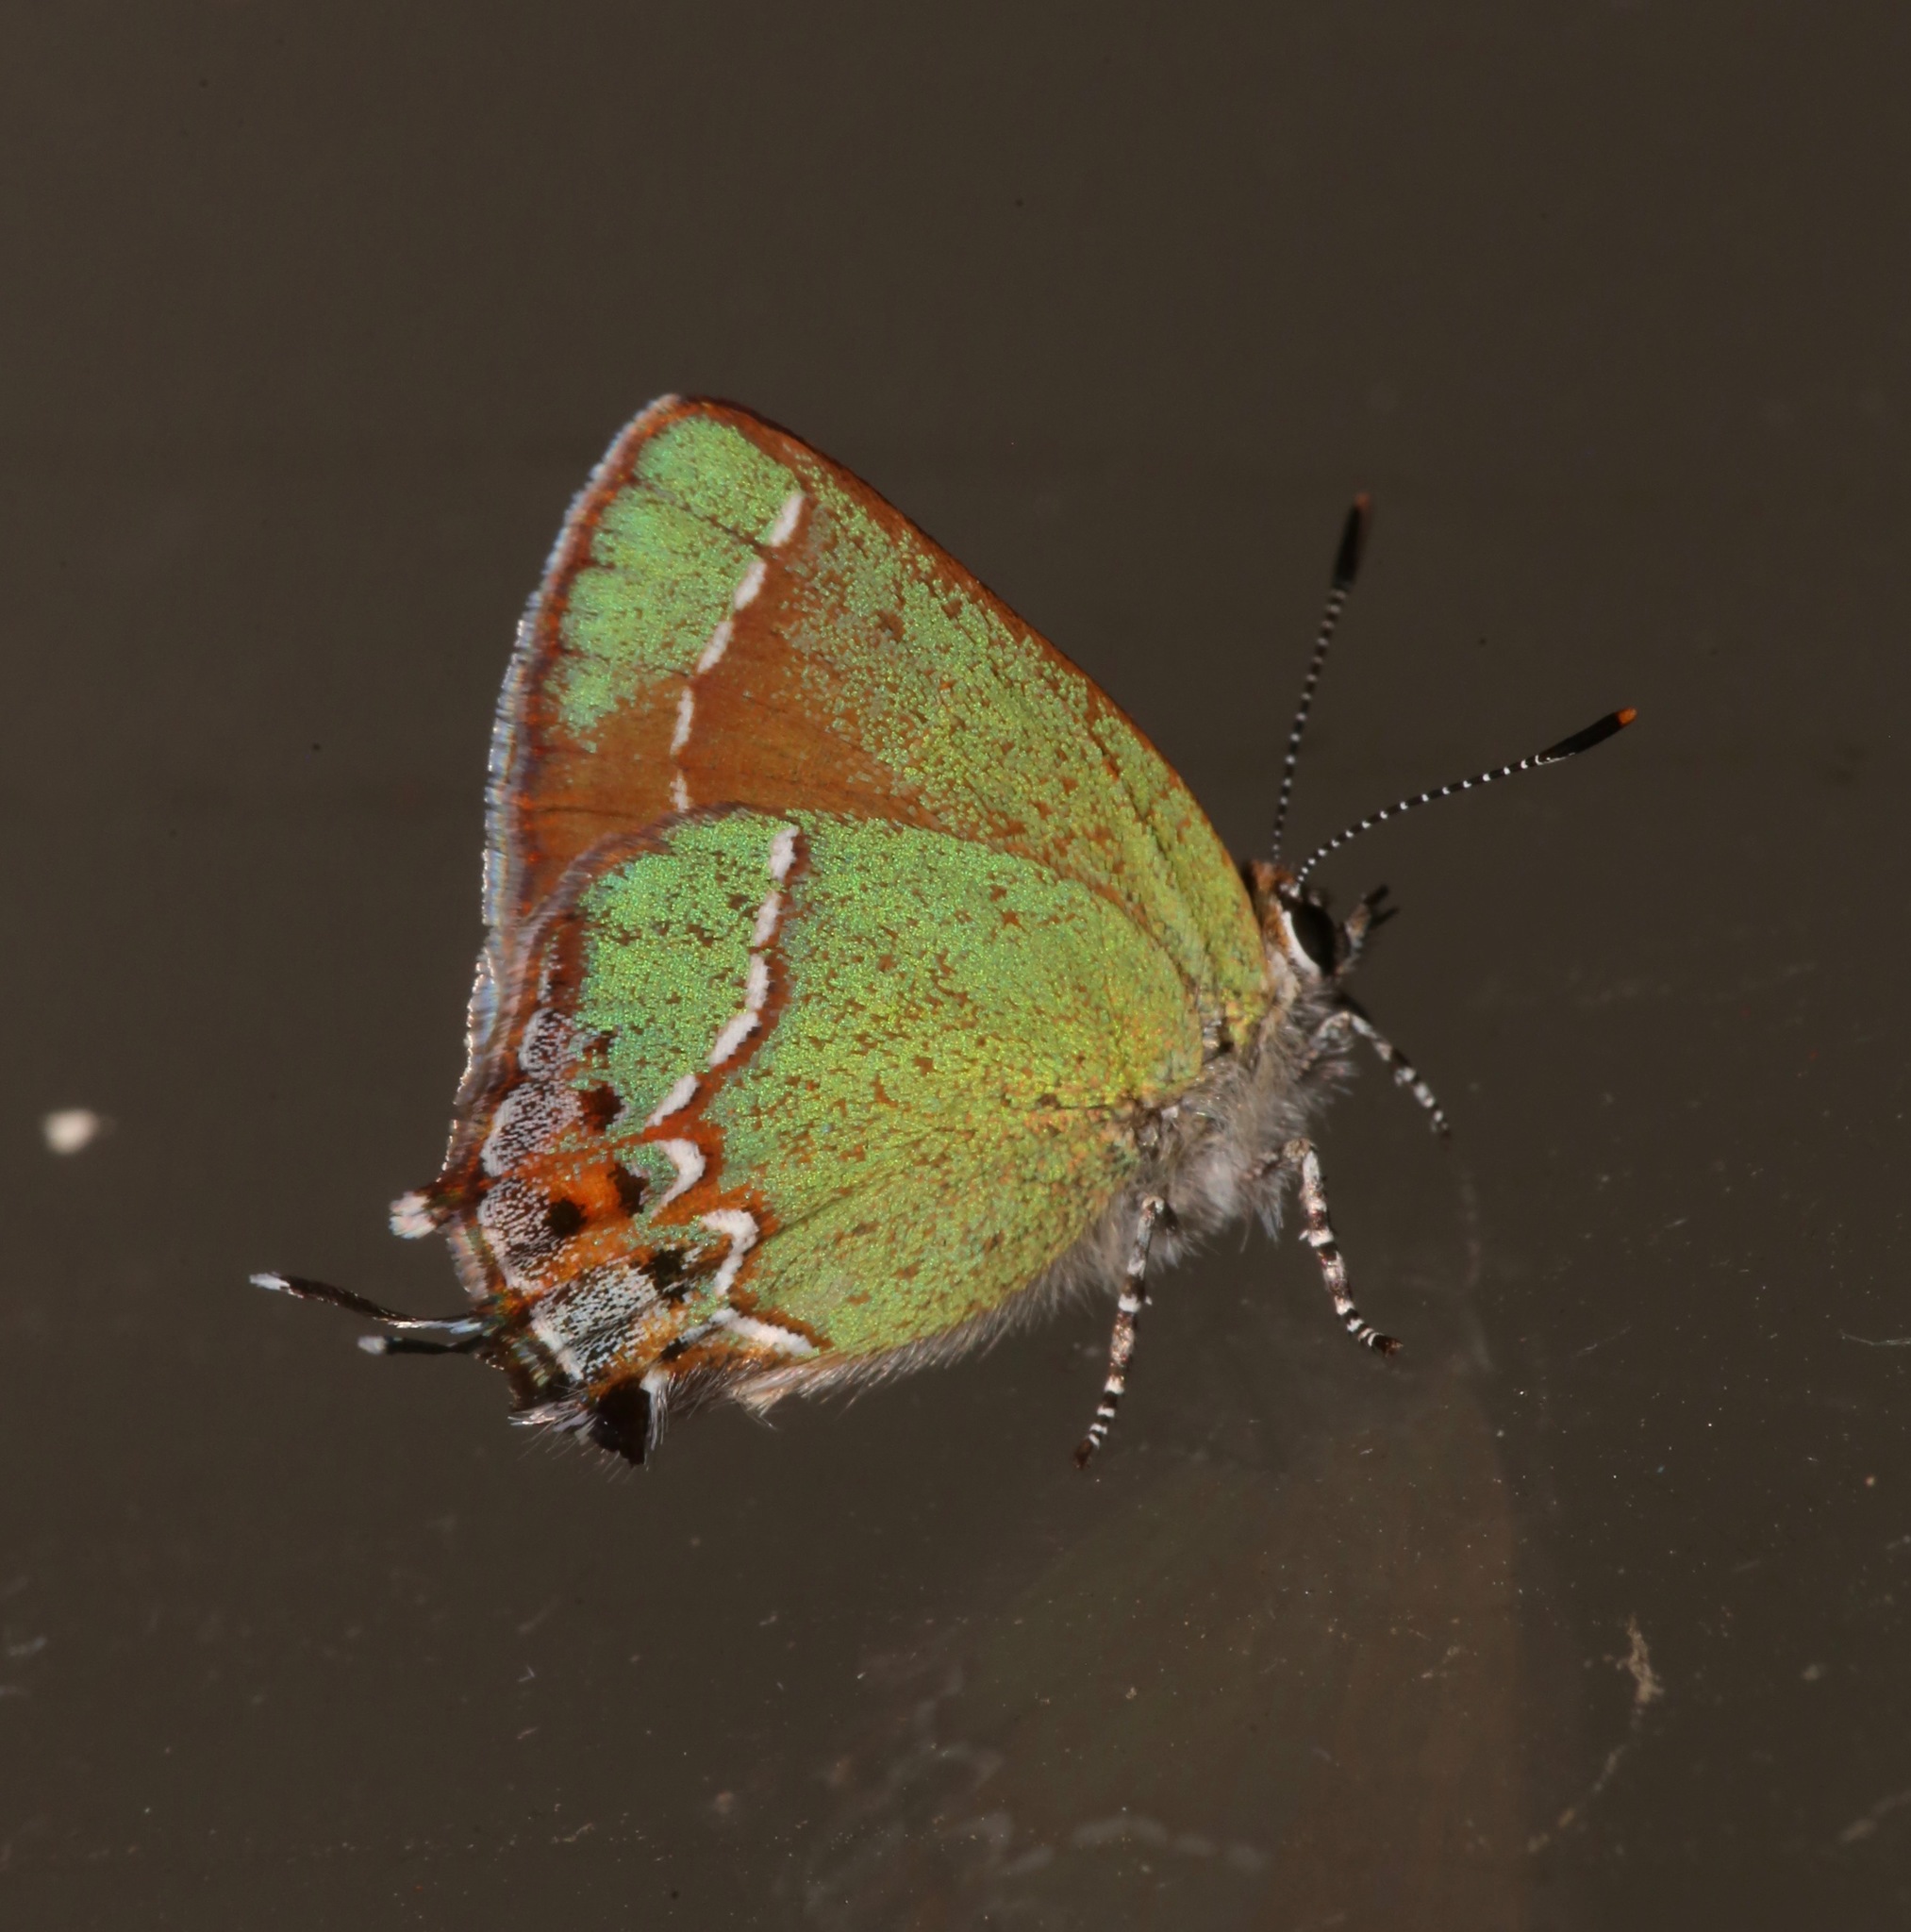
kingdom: Animalia
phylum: Arthropoda
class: Insecta
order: Lepidoptera
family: Lycaenidae
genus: Mitoura
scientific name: Mitoura gryneus
